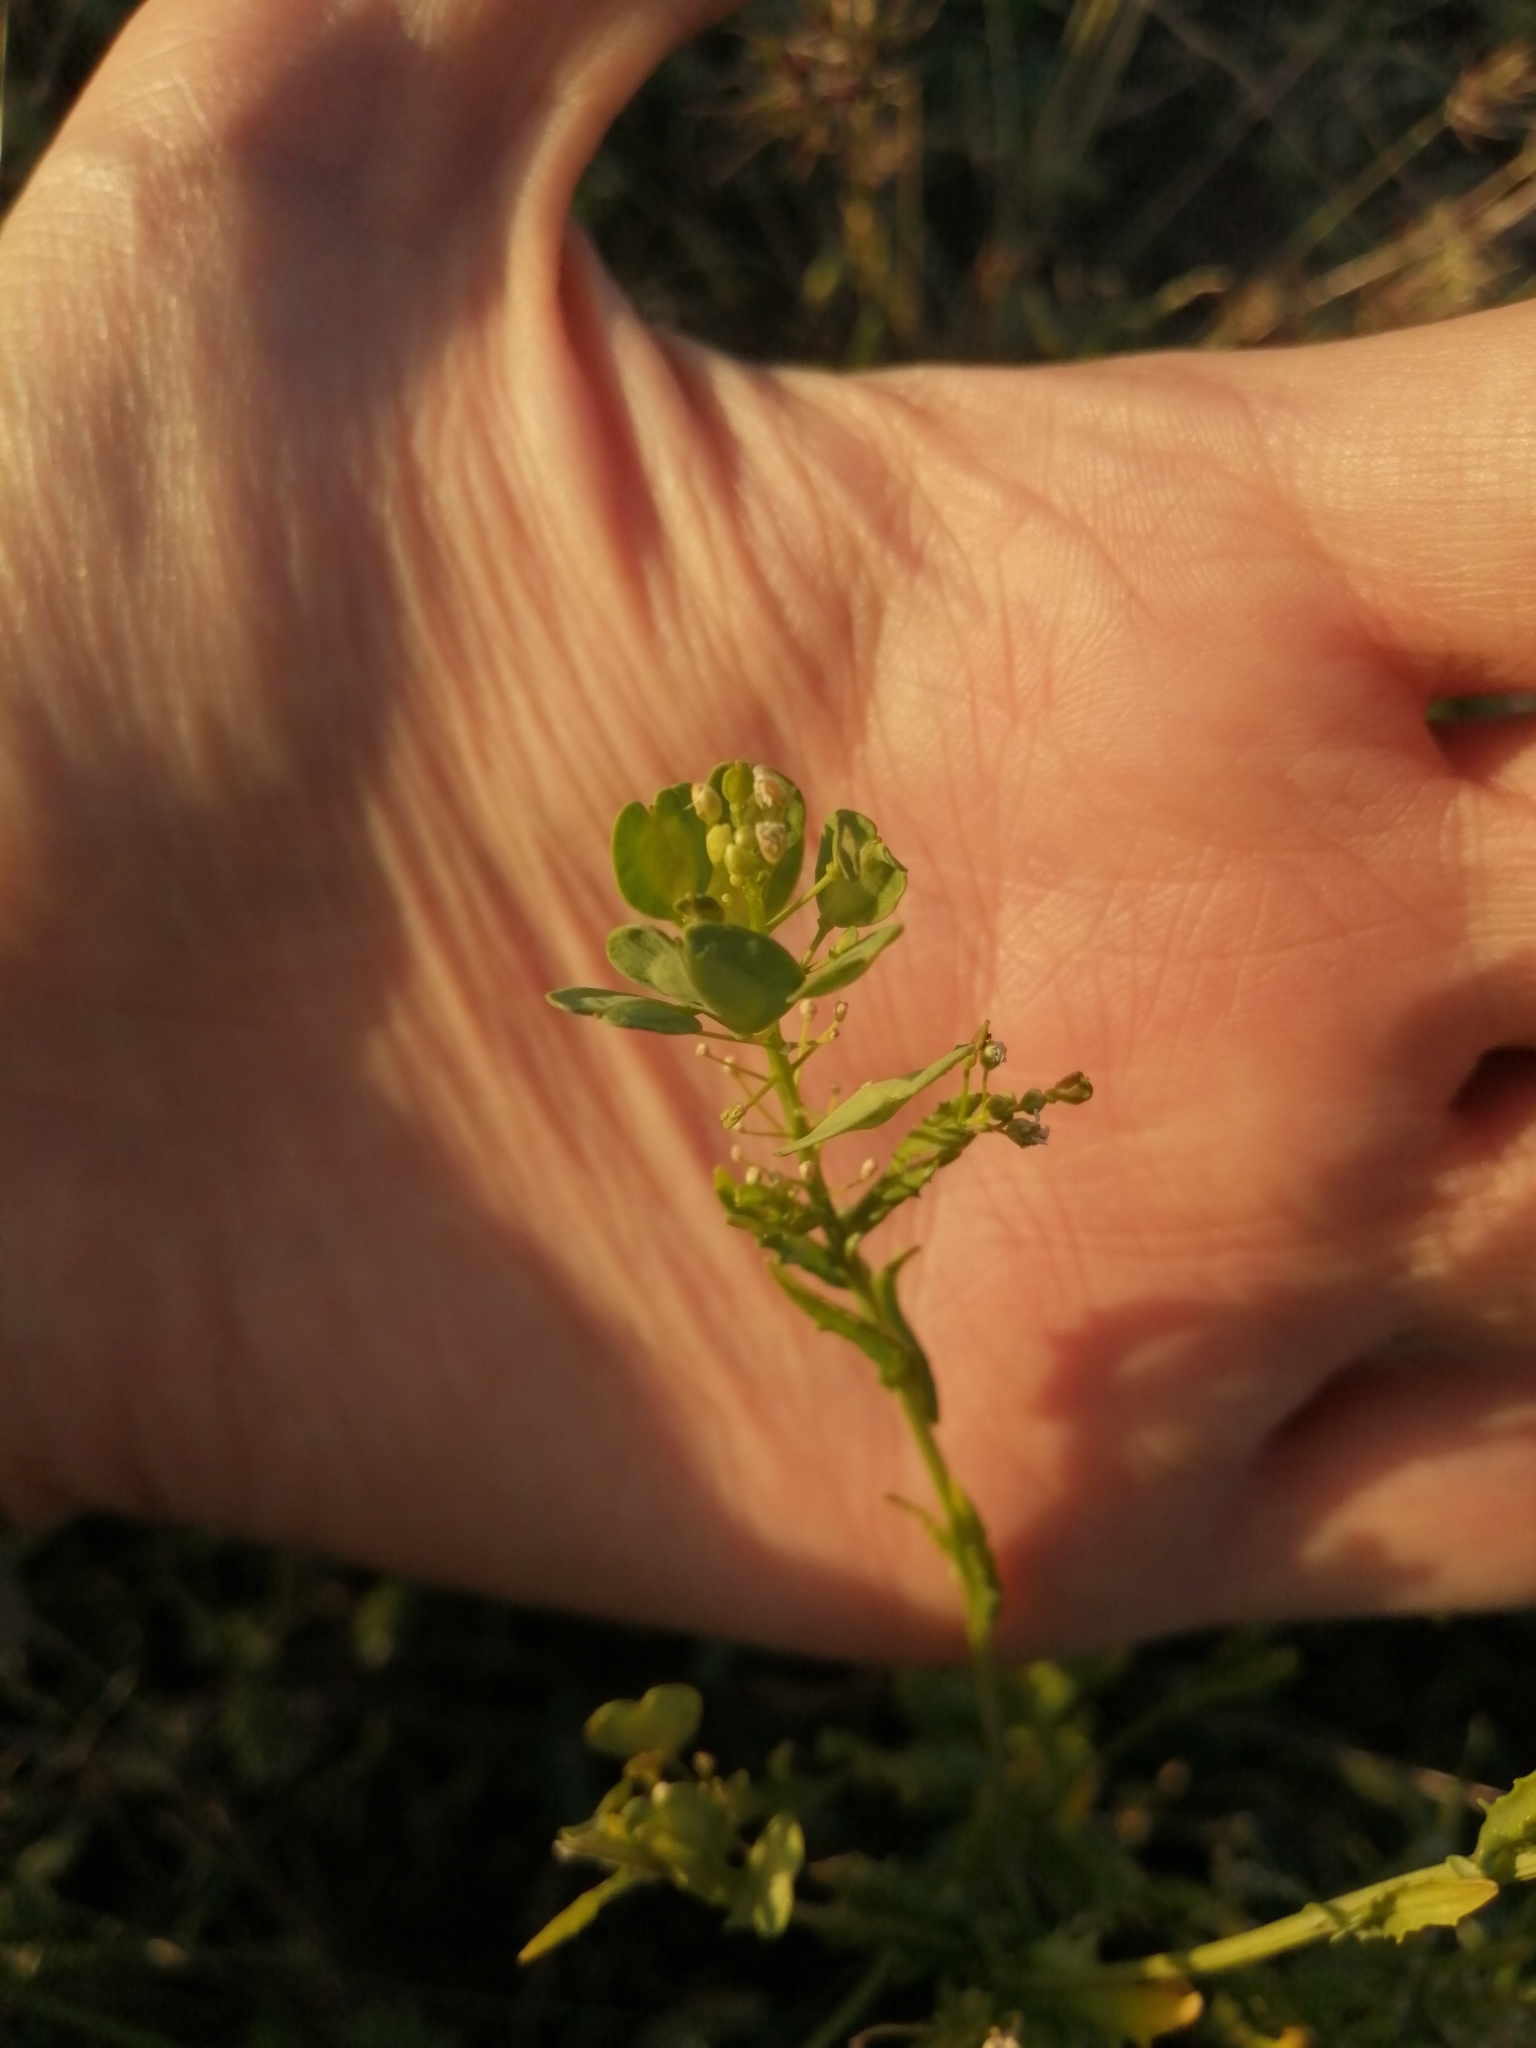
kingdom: Plantae
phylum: Tracheophyta
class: Magnoliopsida
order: Brassicales
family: Brassicaceae
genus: Thlaspi
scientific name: Thlaspi arvense
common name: Field pennycress
